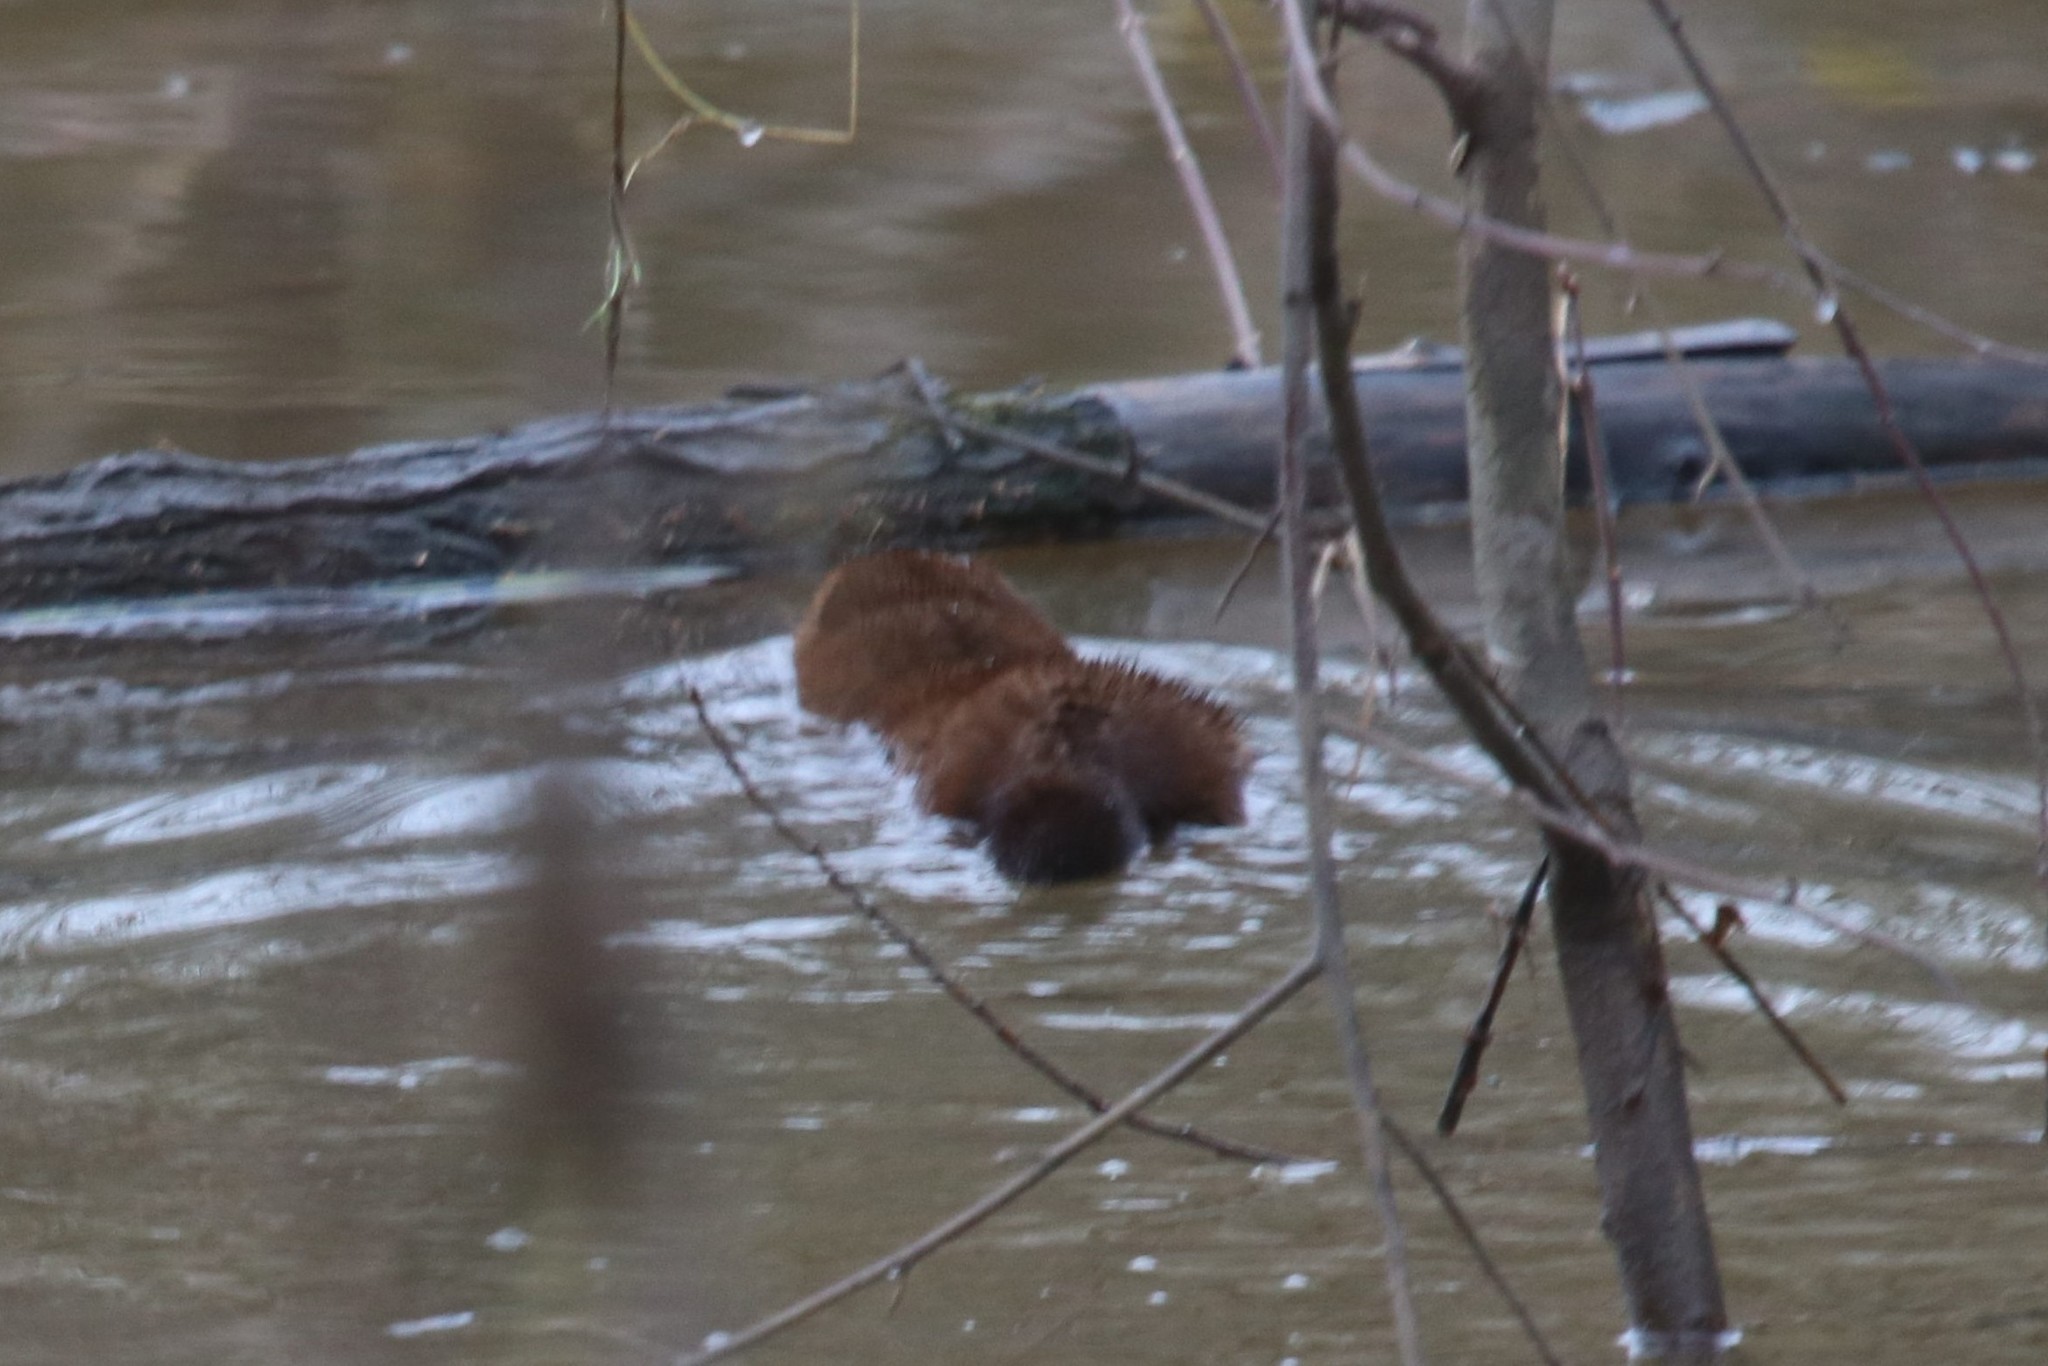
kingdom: Animalia
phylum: Chordata
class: Mammalia
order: Carnivora
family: Mustelidae
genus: Mustela
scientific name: Mustela
